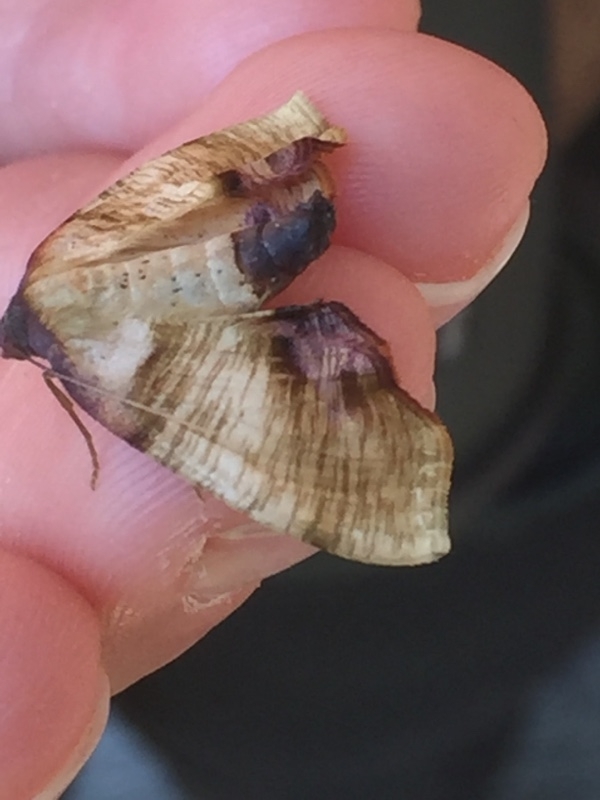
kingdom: Animalia
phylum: Arthropoda
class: Insecta
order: Lepidoptera
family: Geometridae
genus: Plagodis
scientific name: Plagodis dolabraria
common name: Scorched wing
